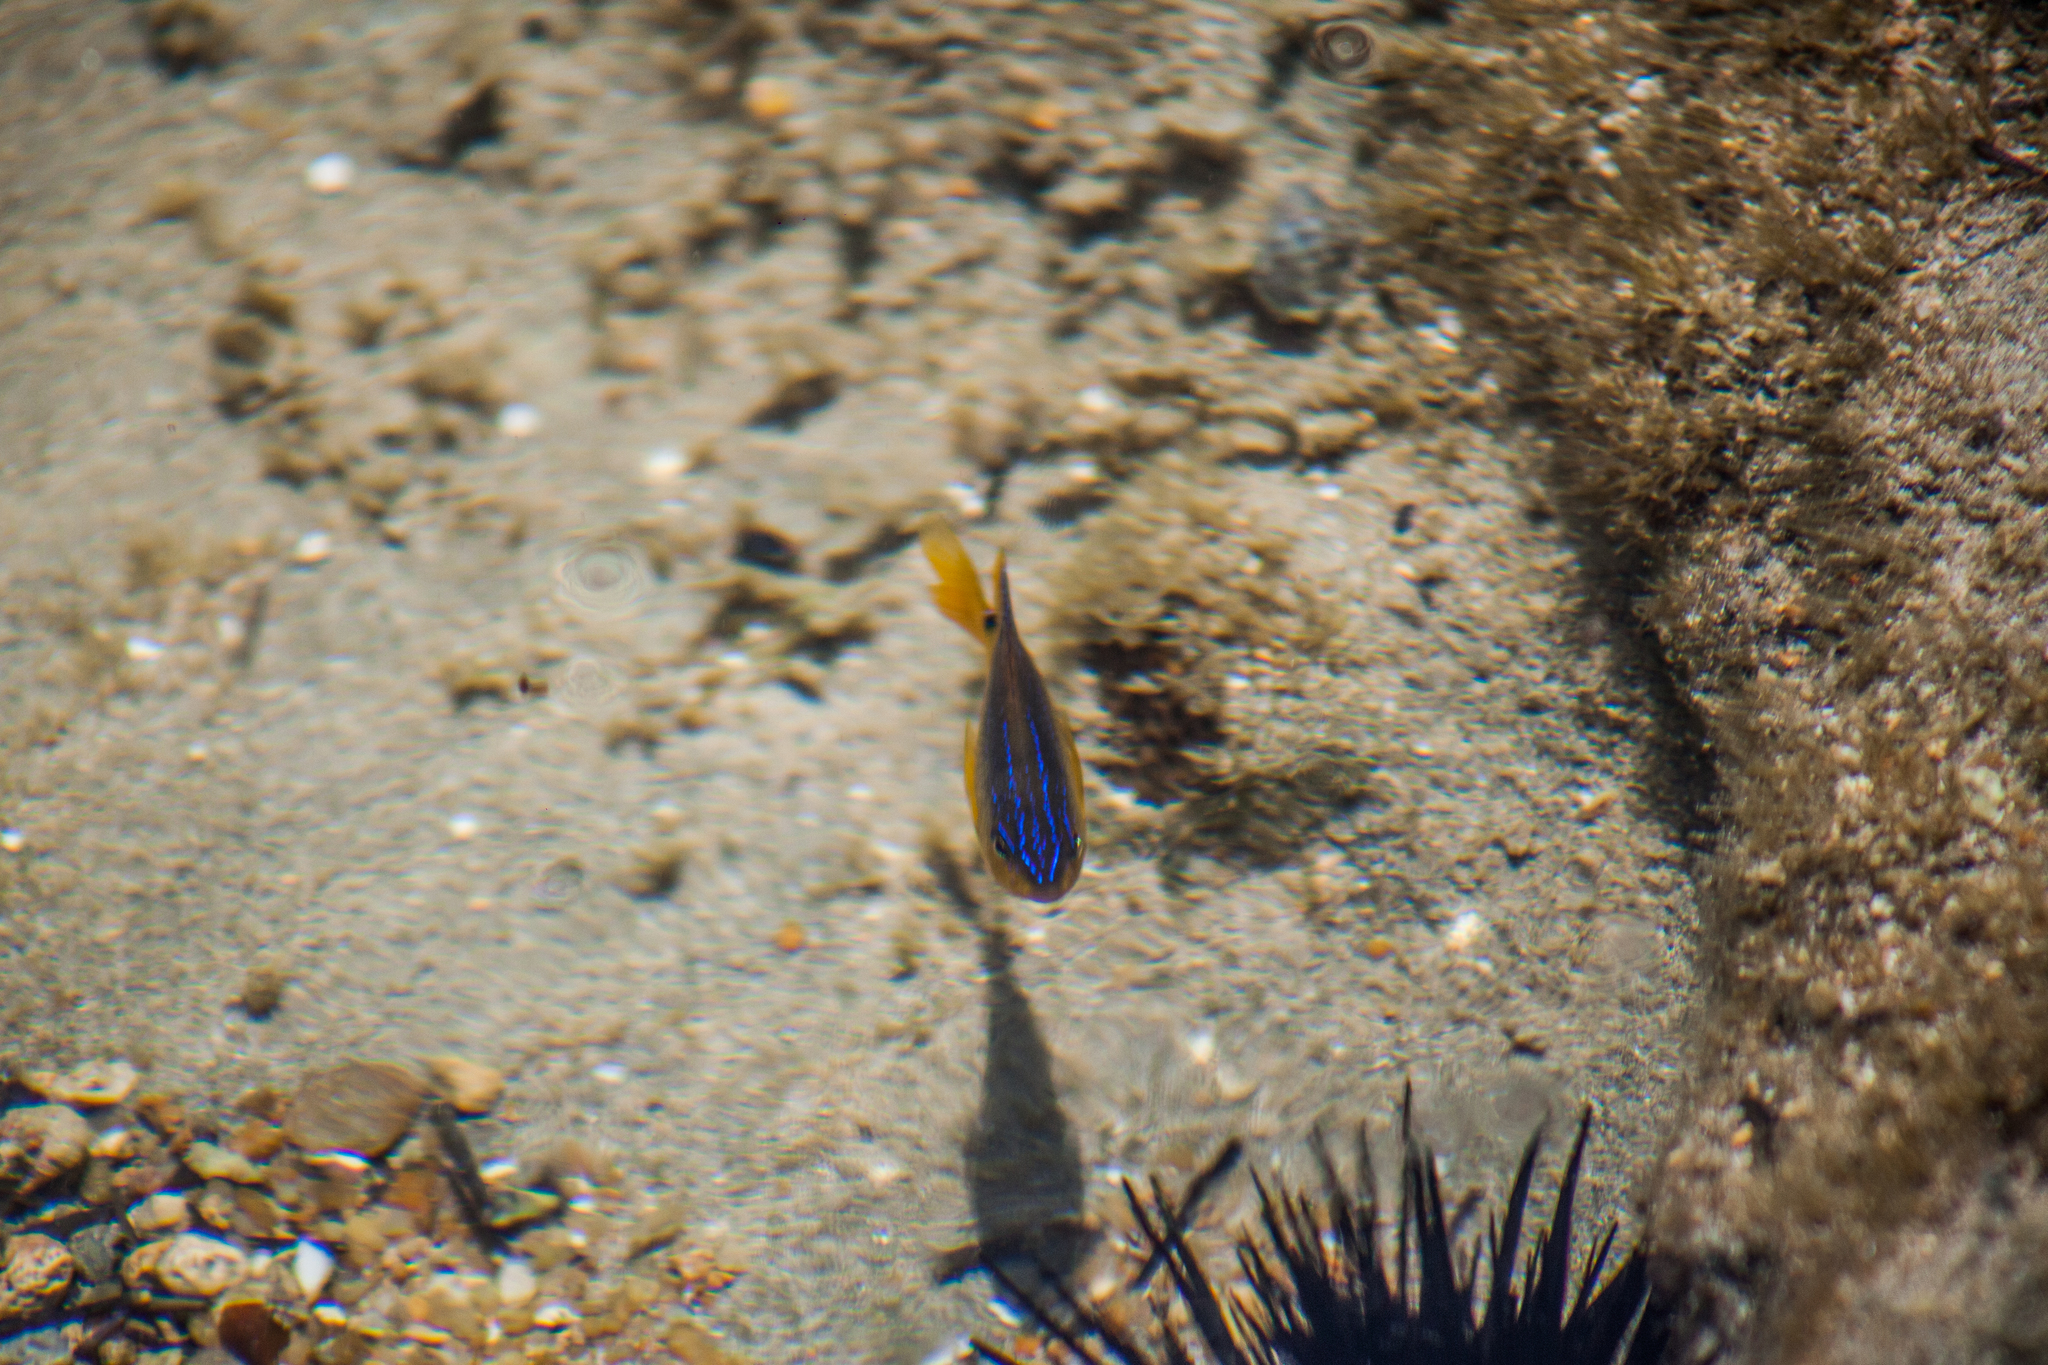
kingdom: Animalia
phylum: Chordata
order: Perciformes
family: Pomacentridae
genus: Stegastes
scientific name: Stegastes variabilis
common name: Cocoa damselfish
